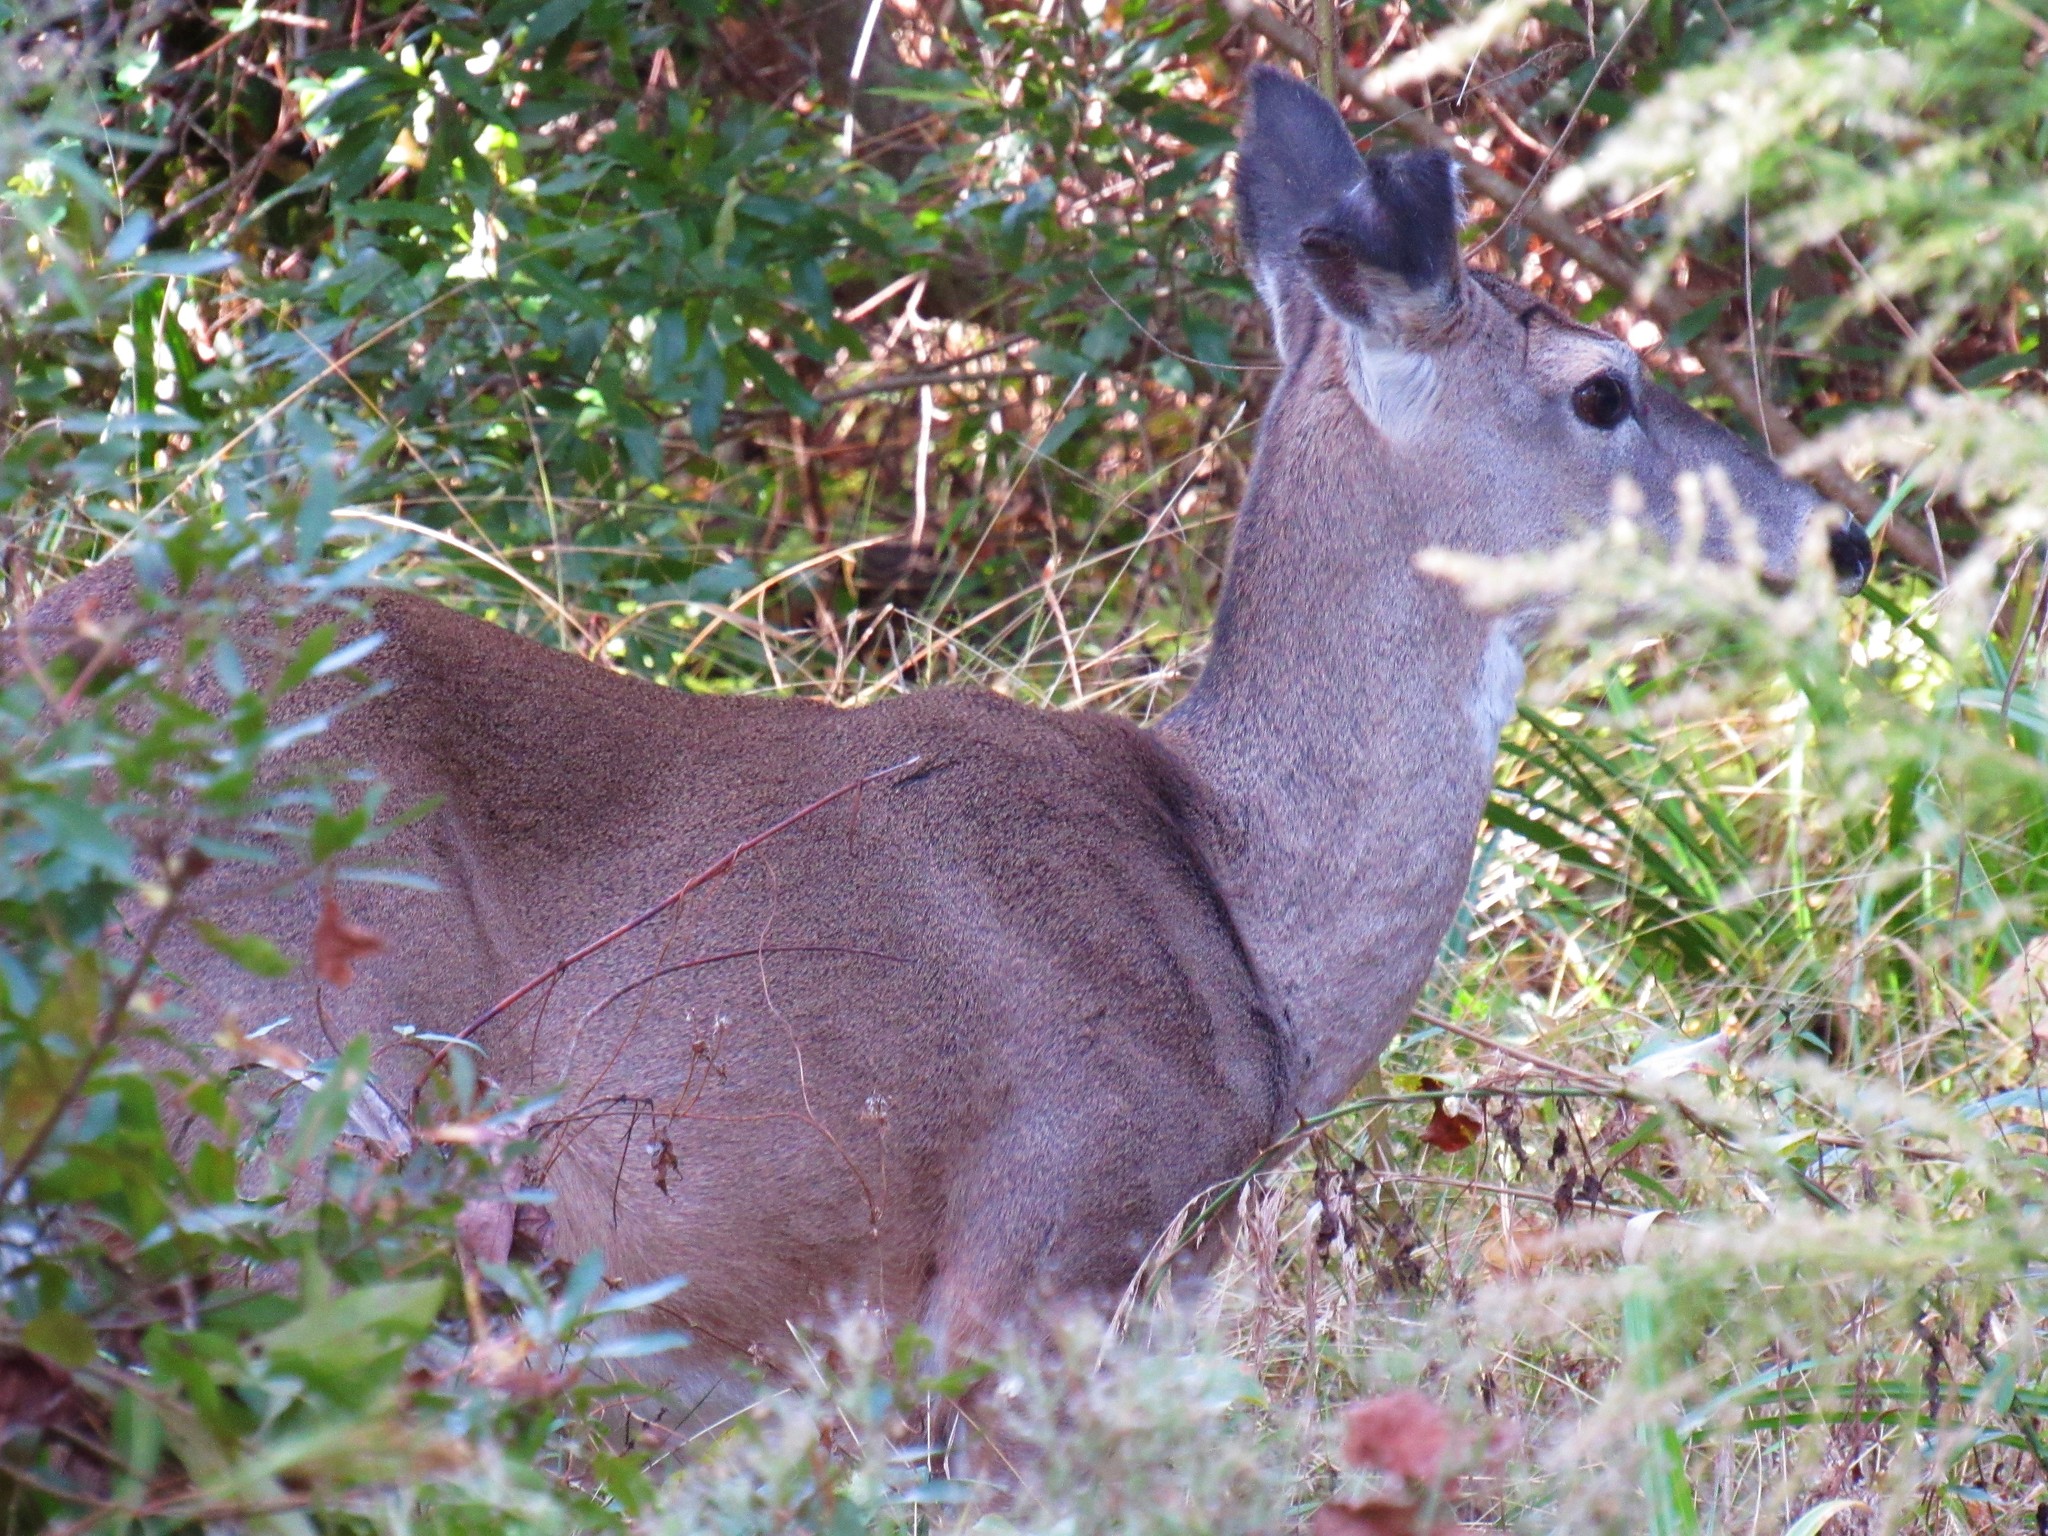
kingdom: Animalia
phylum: Chordata
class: Mammalia
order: Artiodactyla
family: Cervidae
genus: Odocoileus
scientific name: Odocoileus virginianus
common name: White-tailed deer
